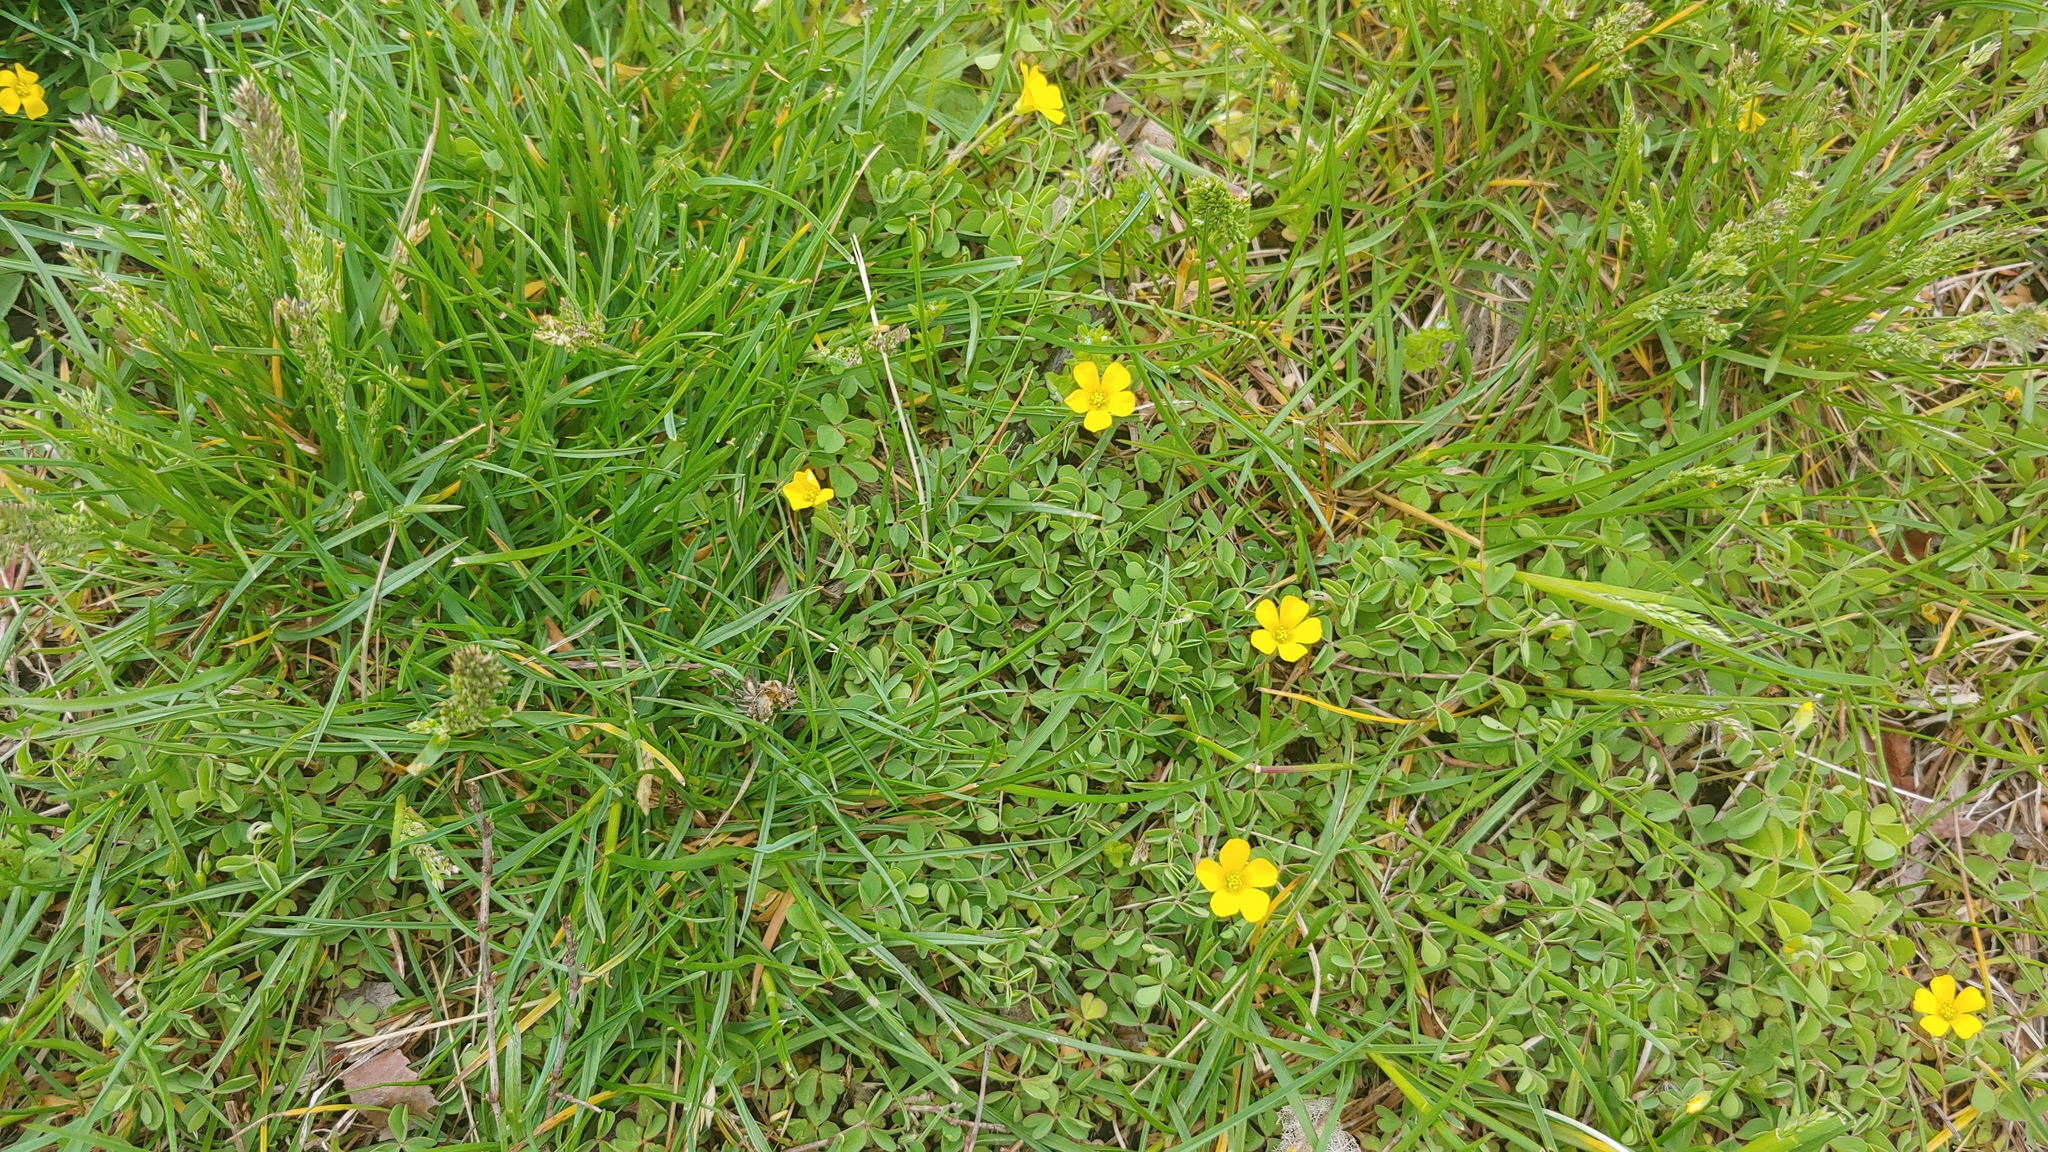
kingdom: Plantae
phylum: Tracheophyta
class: Magnoliopsida
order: Oxalidales
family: Oxalidaceae
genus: Oxalis
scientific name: Oxalis stricta
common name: Upright yellow-sorrel
